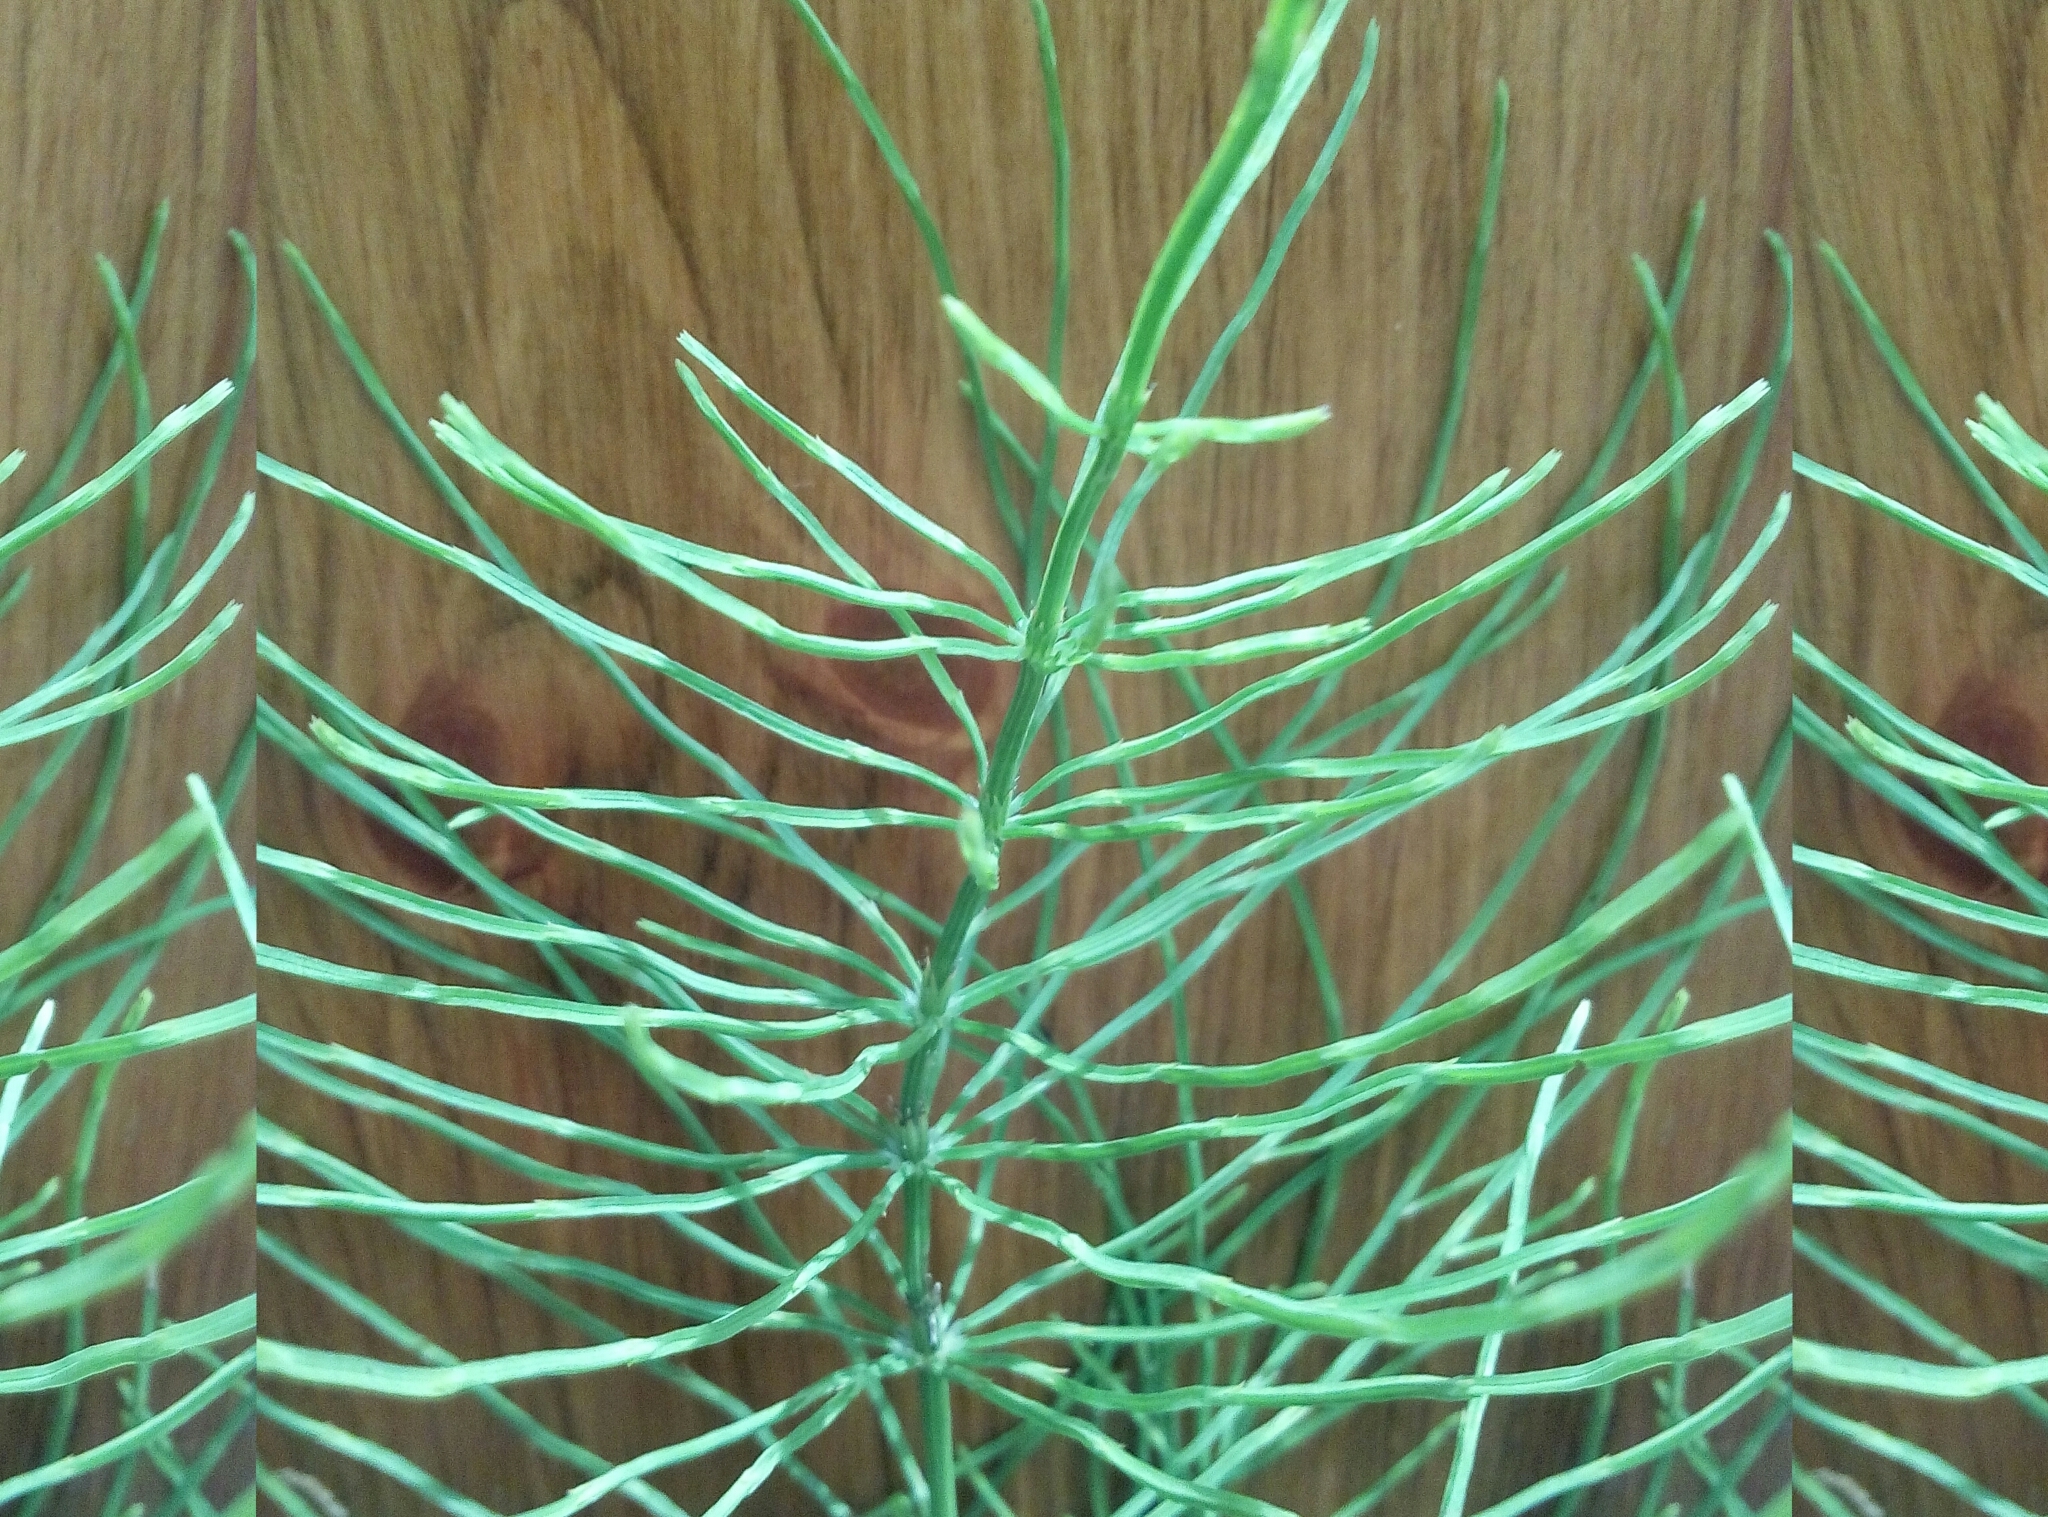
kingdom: Plantae
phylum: Tracheophyta
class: Polypodiopsida
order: Equisetales
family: Equisetaceae
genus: Equisetum
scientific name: Equisetum arvense
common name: Field horsetail
